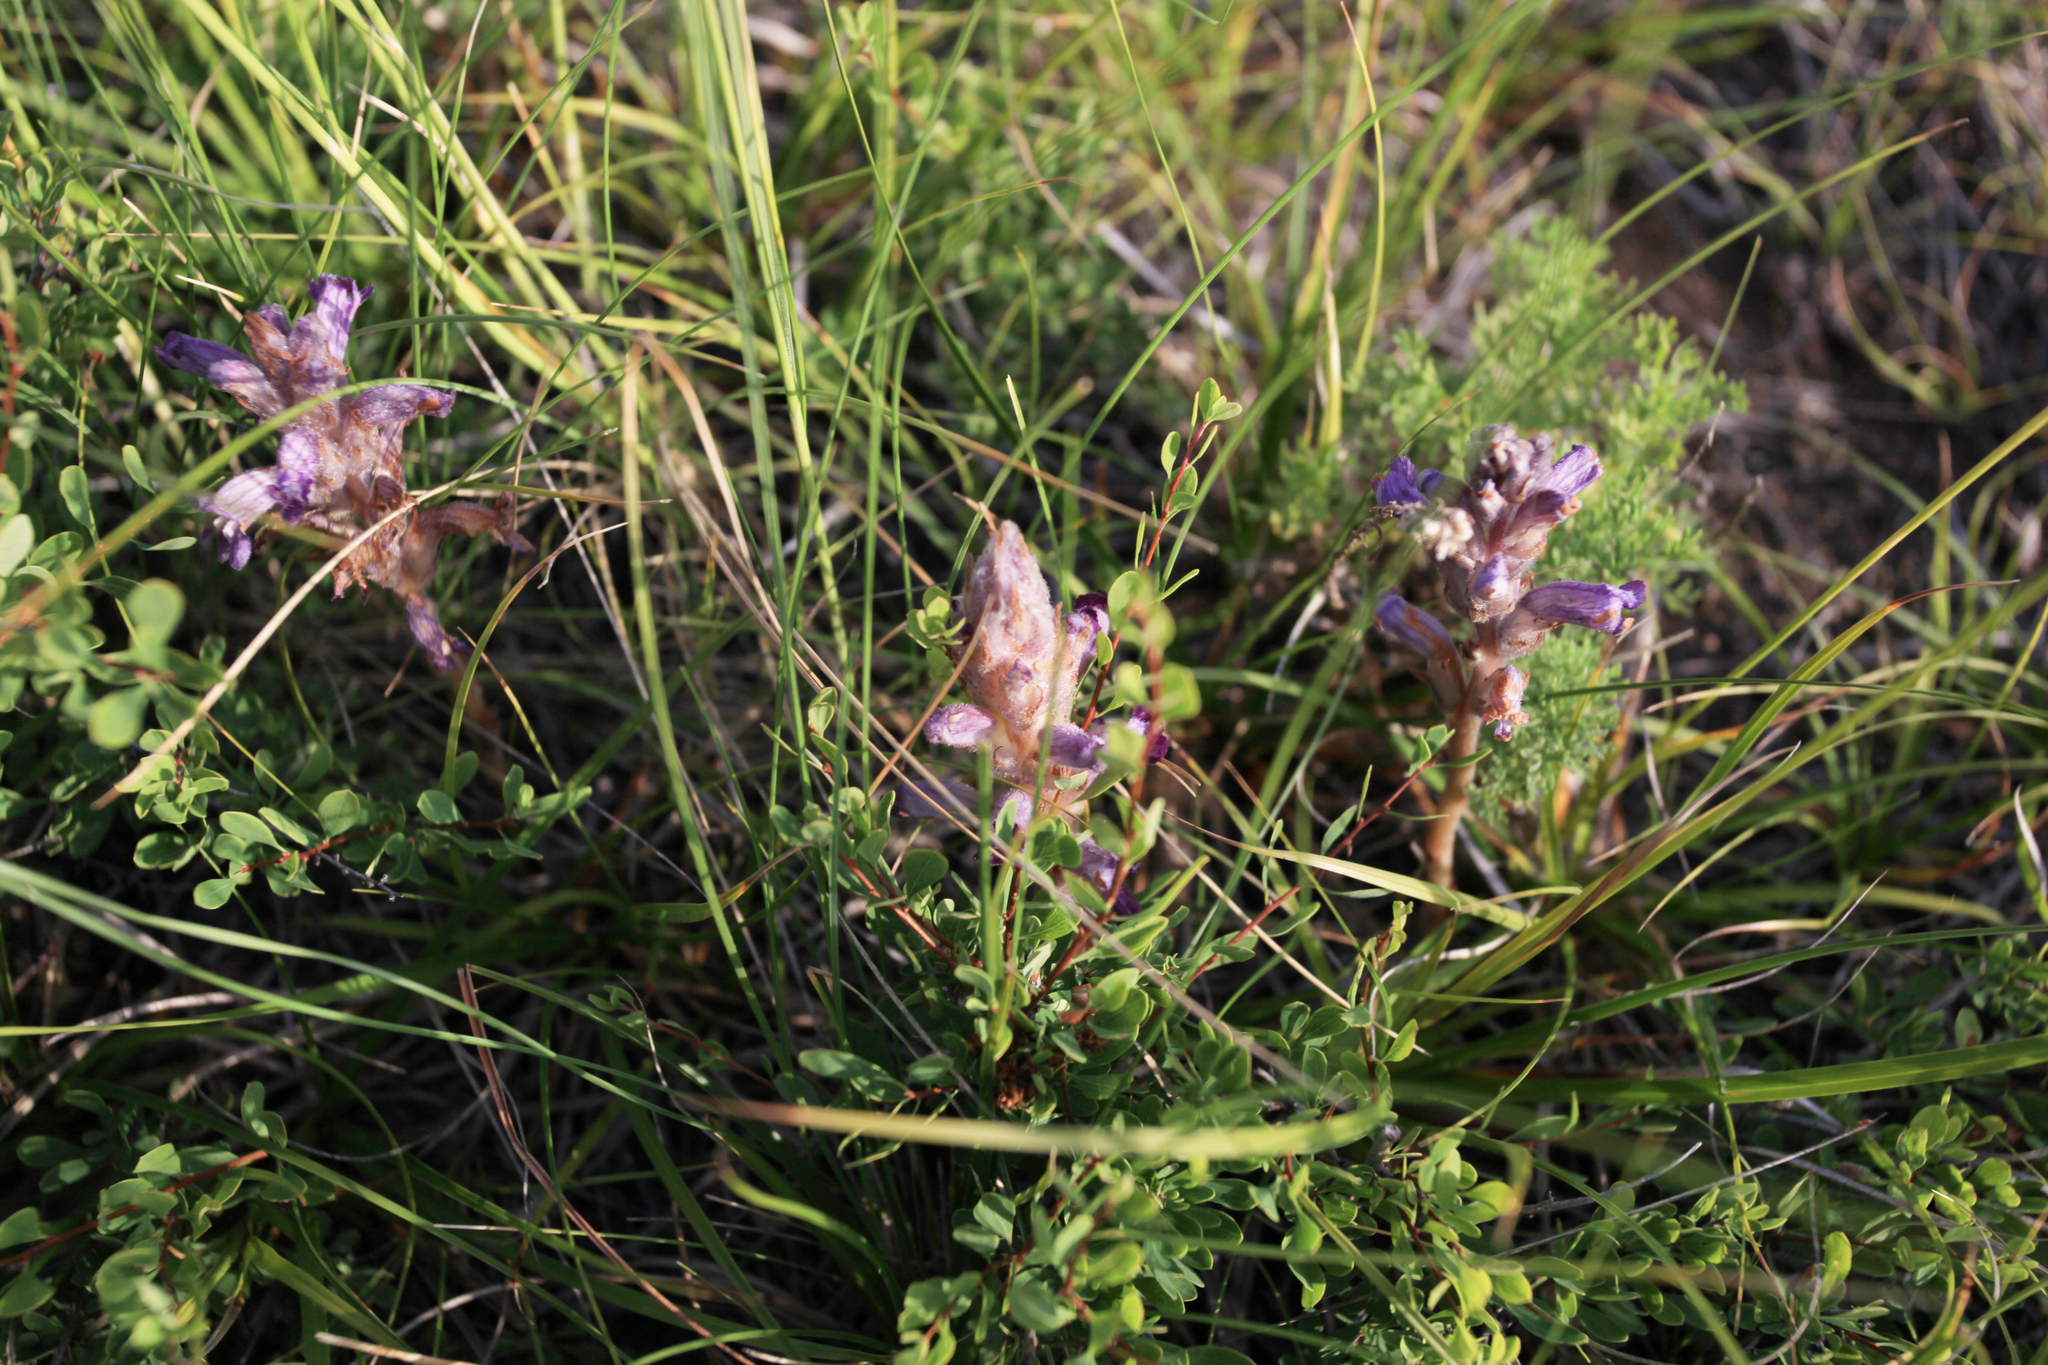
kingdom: Plantae
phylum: Tracheophyta
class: Magnoliopsida
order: Lamiales
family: Orobanchaceae
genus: Phelipanche
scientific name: Phelipanche caesia
